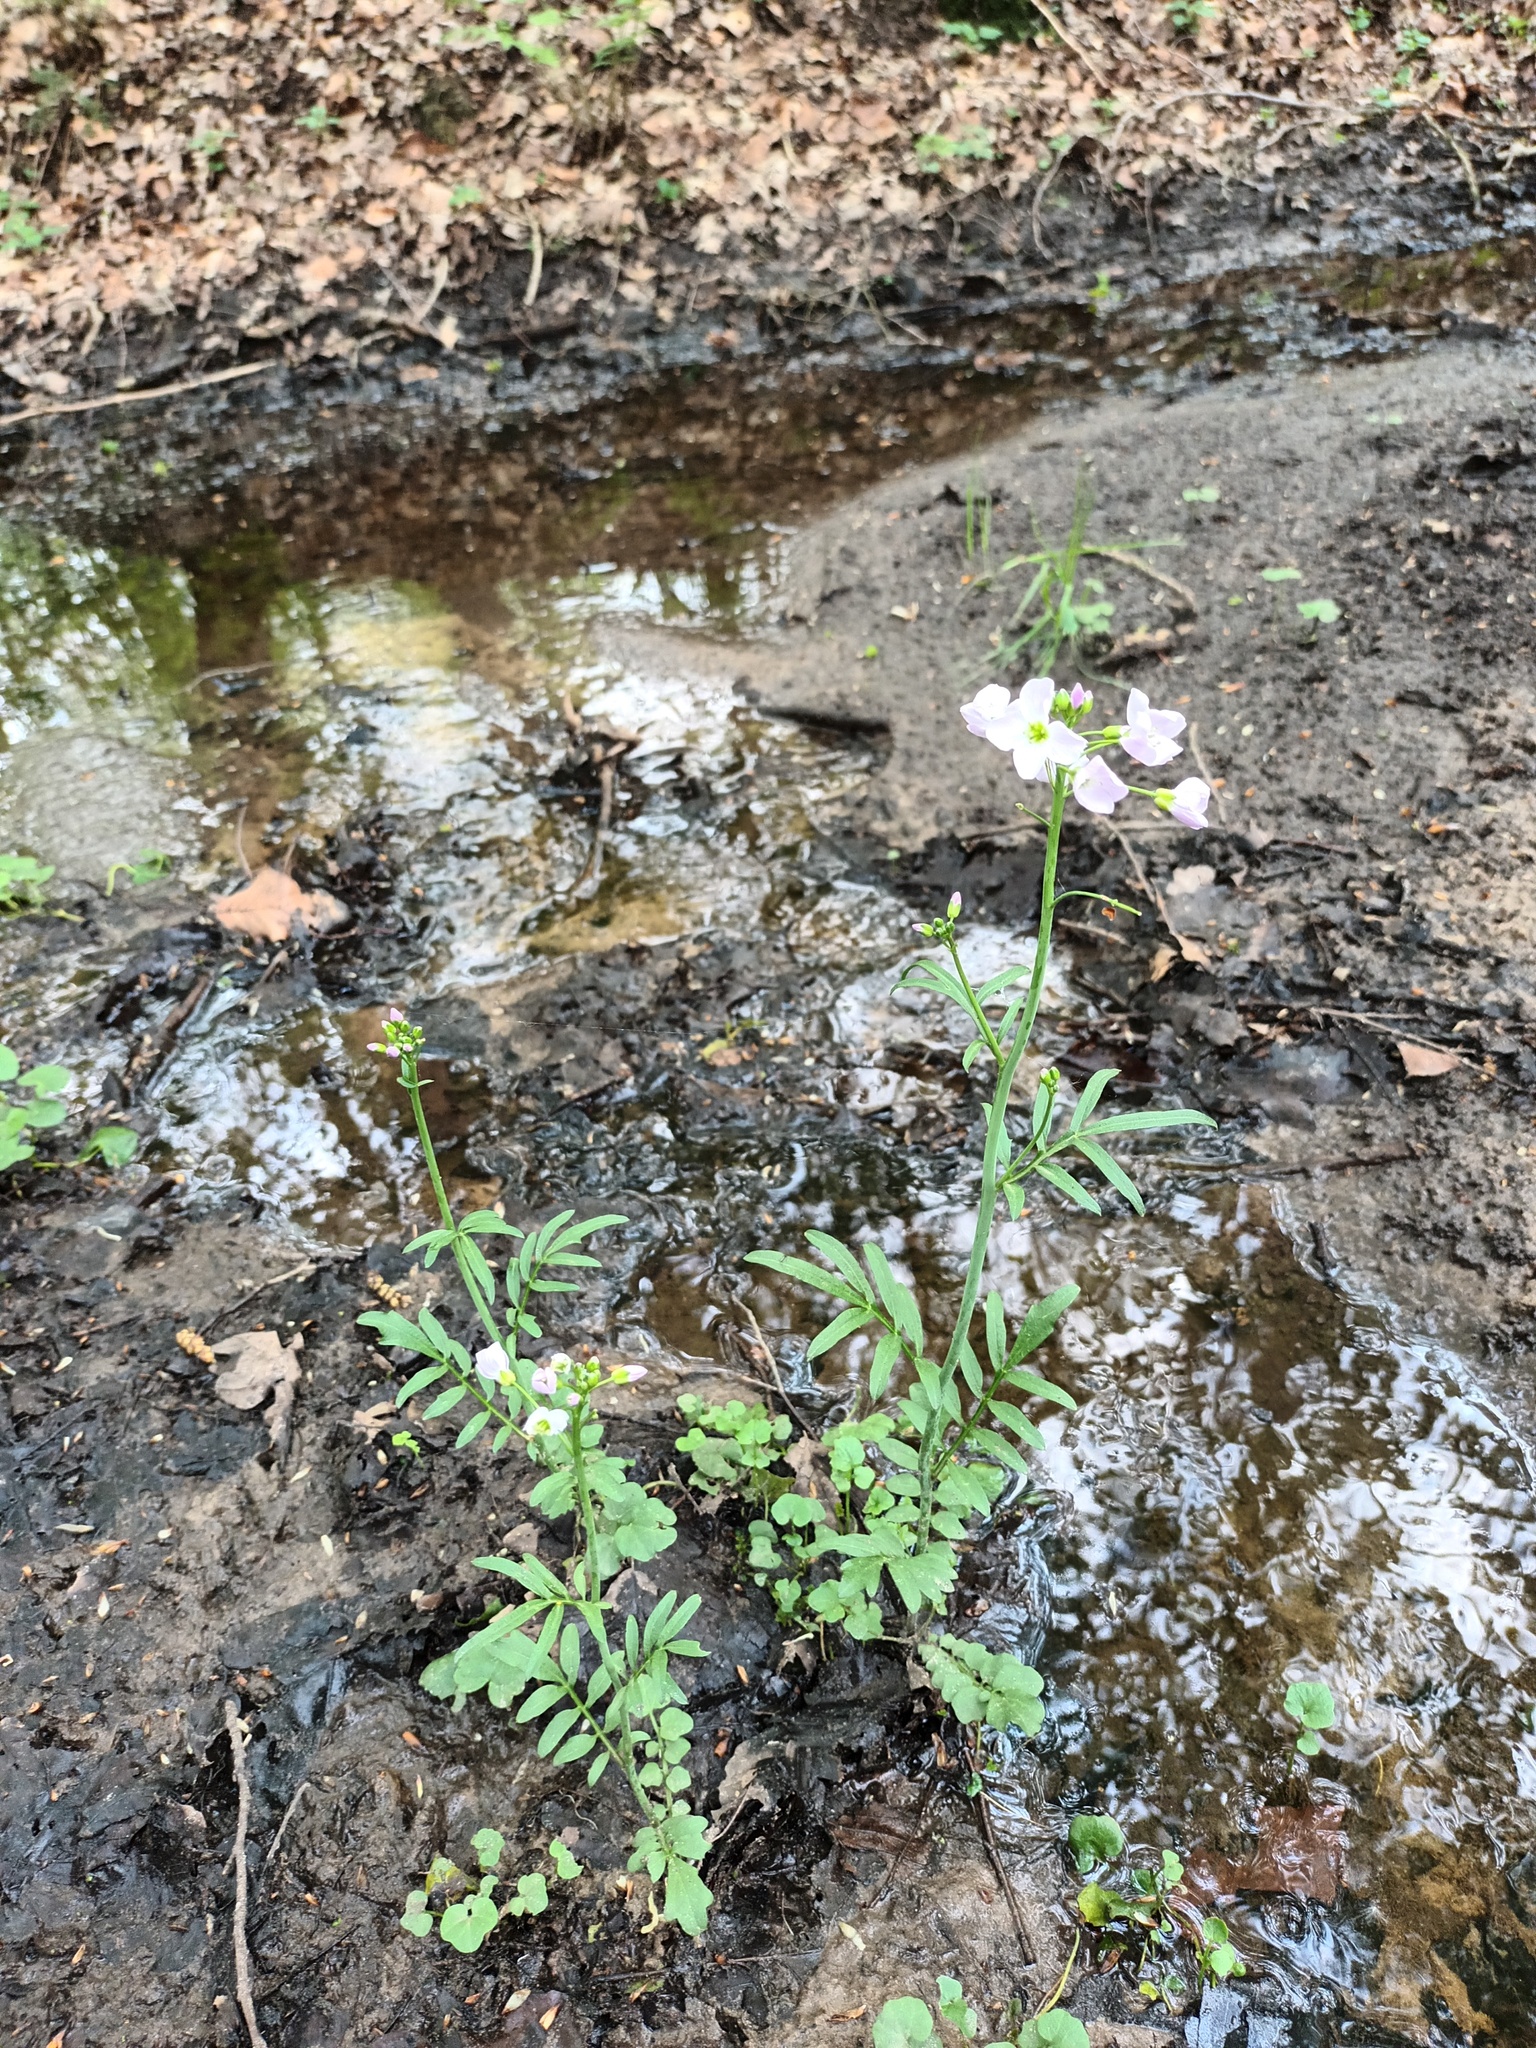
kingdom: Plantae
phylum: Tracheophyta
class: Magnoliopsida
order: Brassicales
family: Brassicaceae
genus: Cardamine
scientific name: Cardamine pratensis
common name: Cuckoo flower
